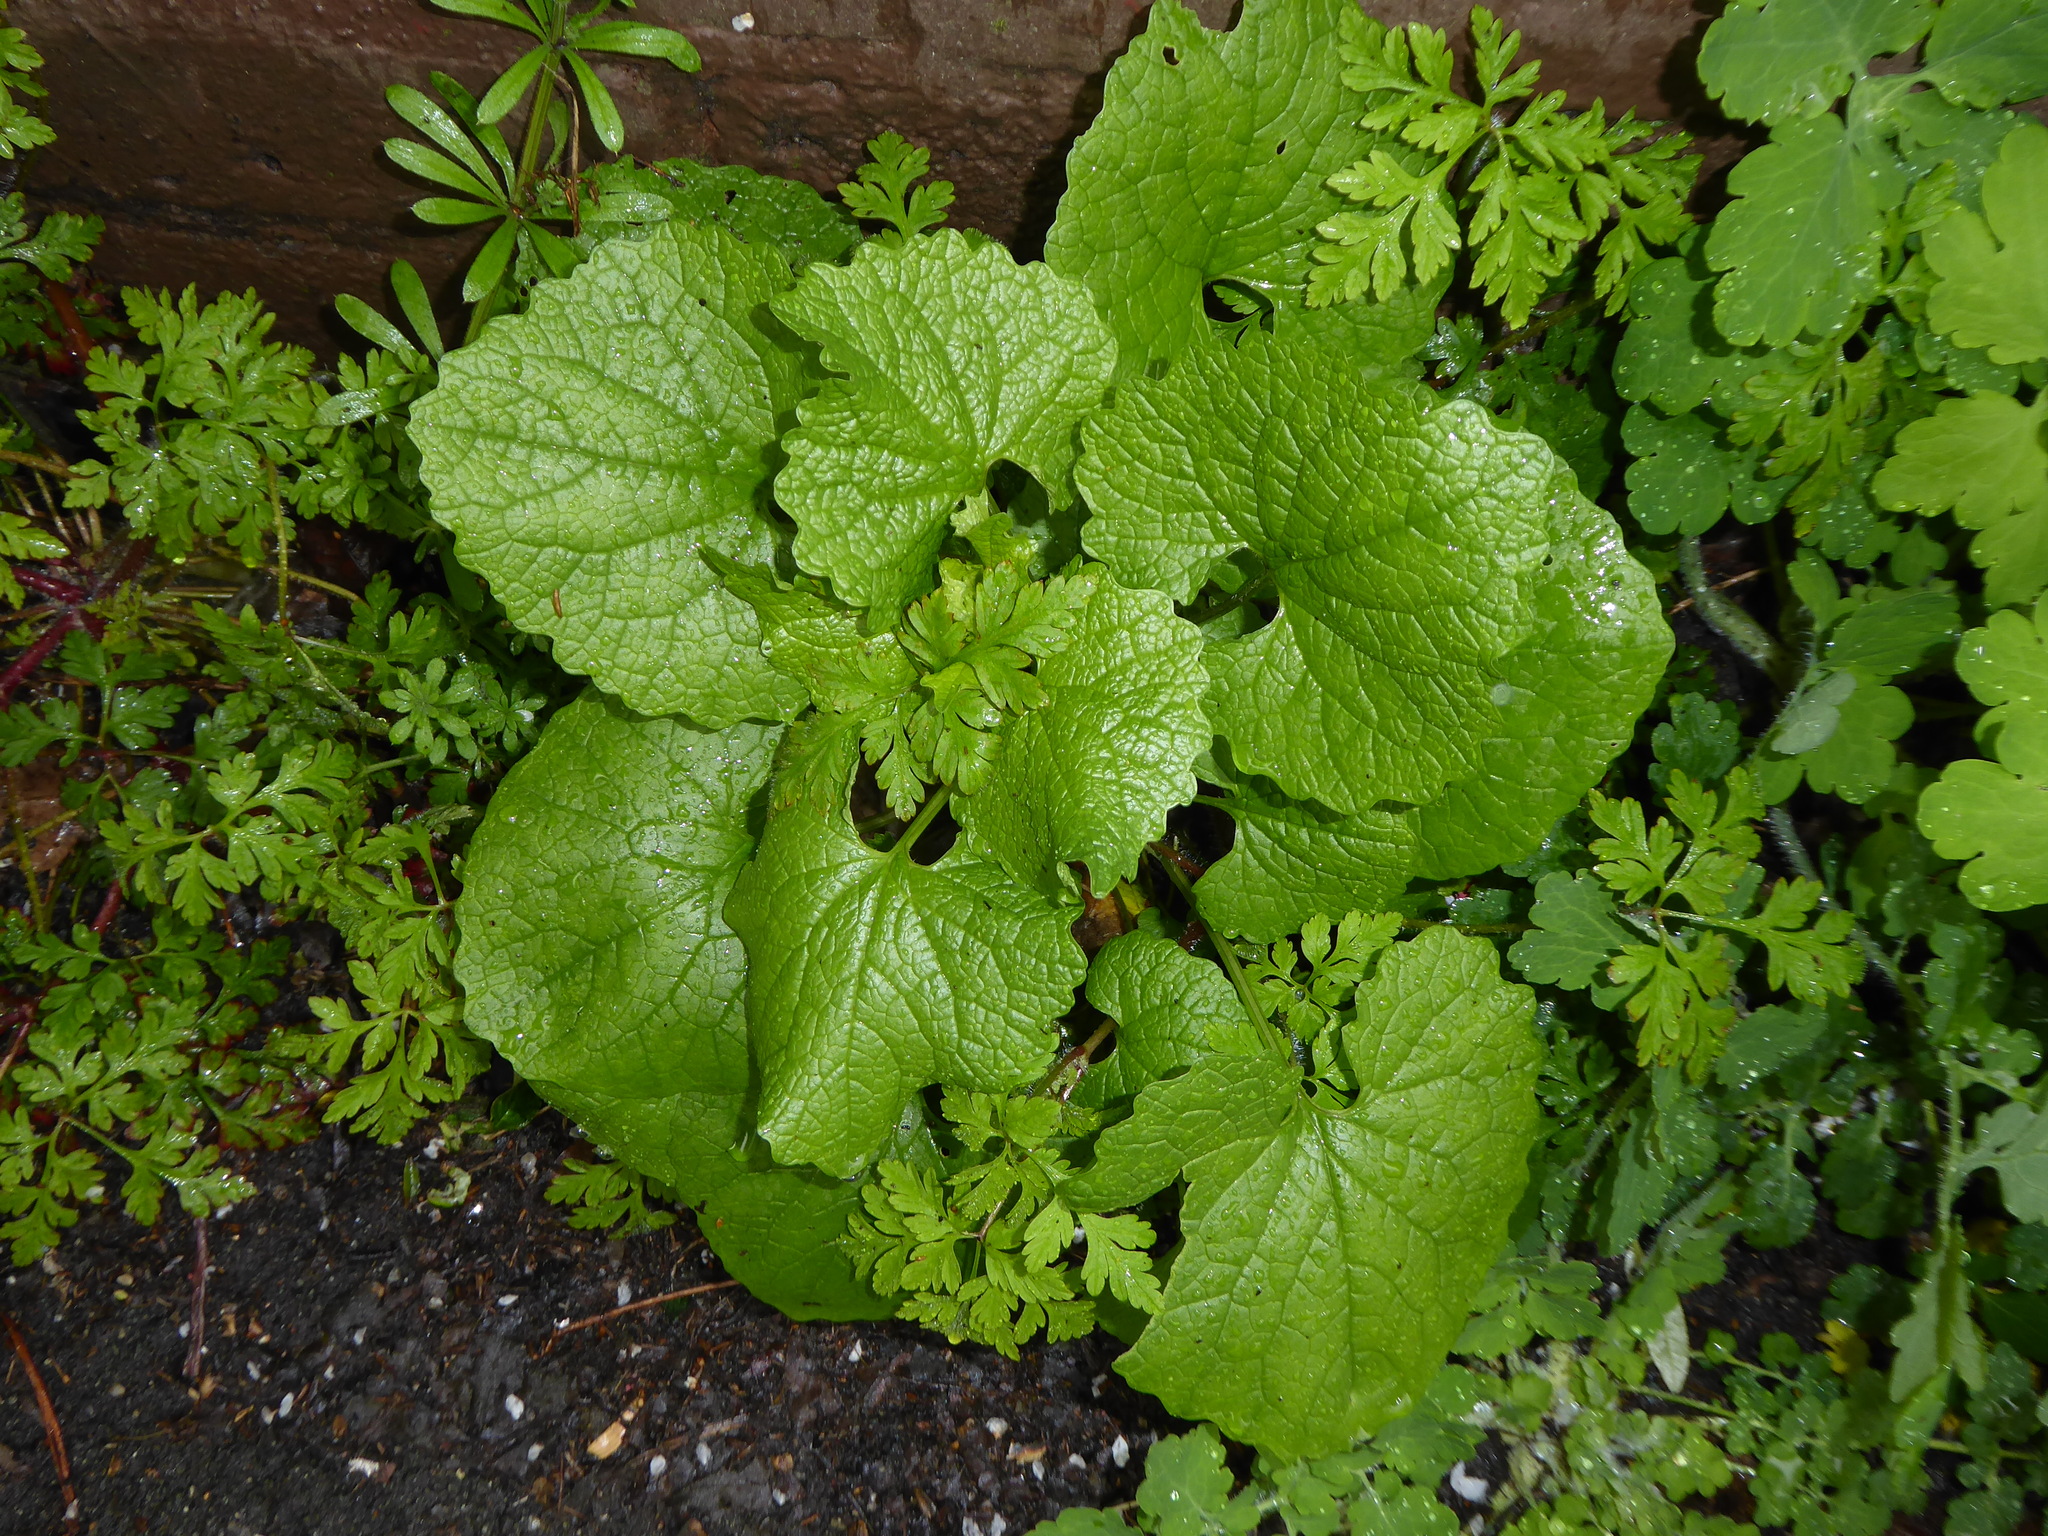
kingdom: Plantae
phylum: Tracheophyta
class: Magnoliopsida
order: Brassicales
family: Brassicaceae
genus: Alliaria
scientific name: Alliaria petiolata
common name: Garlic mustard
